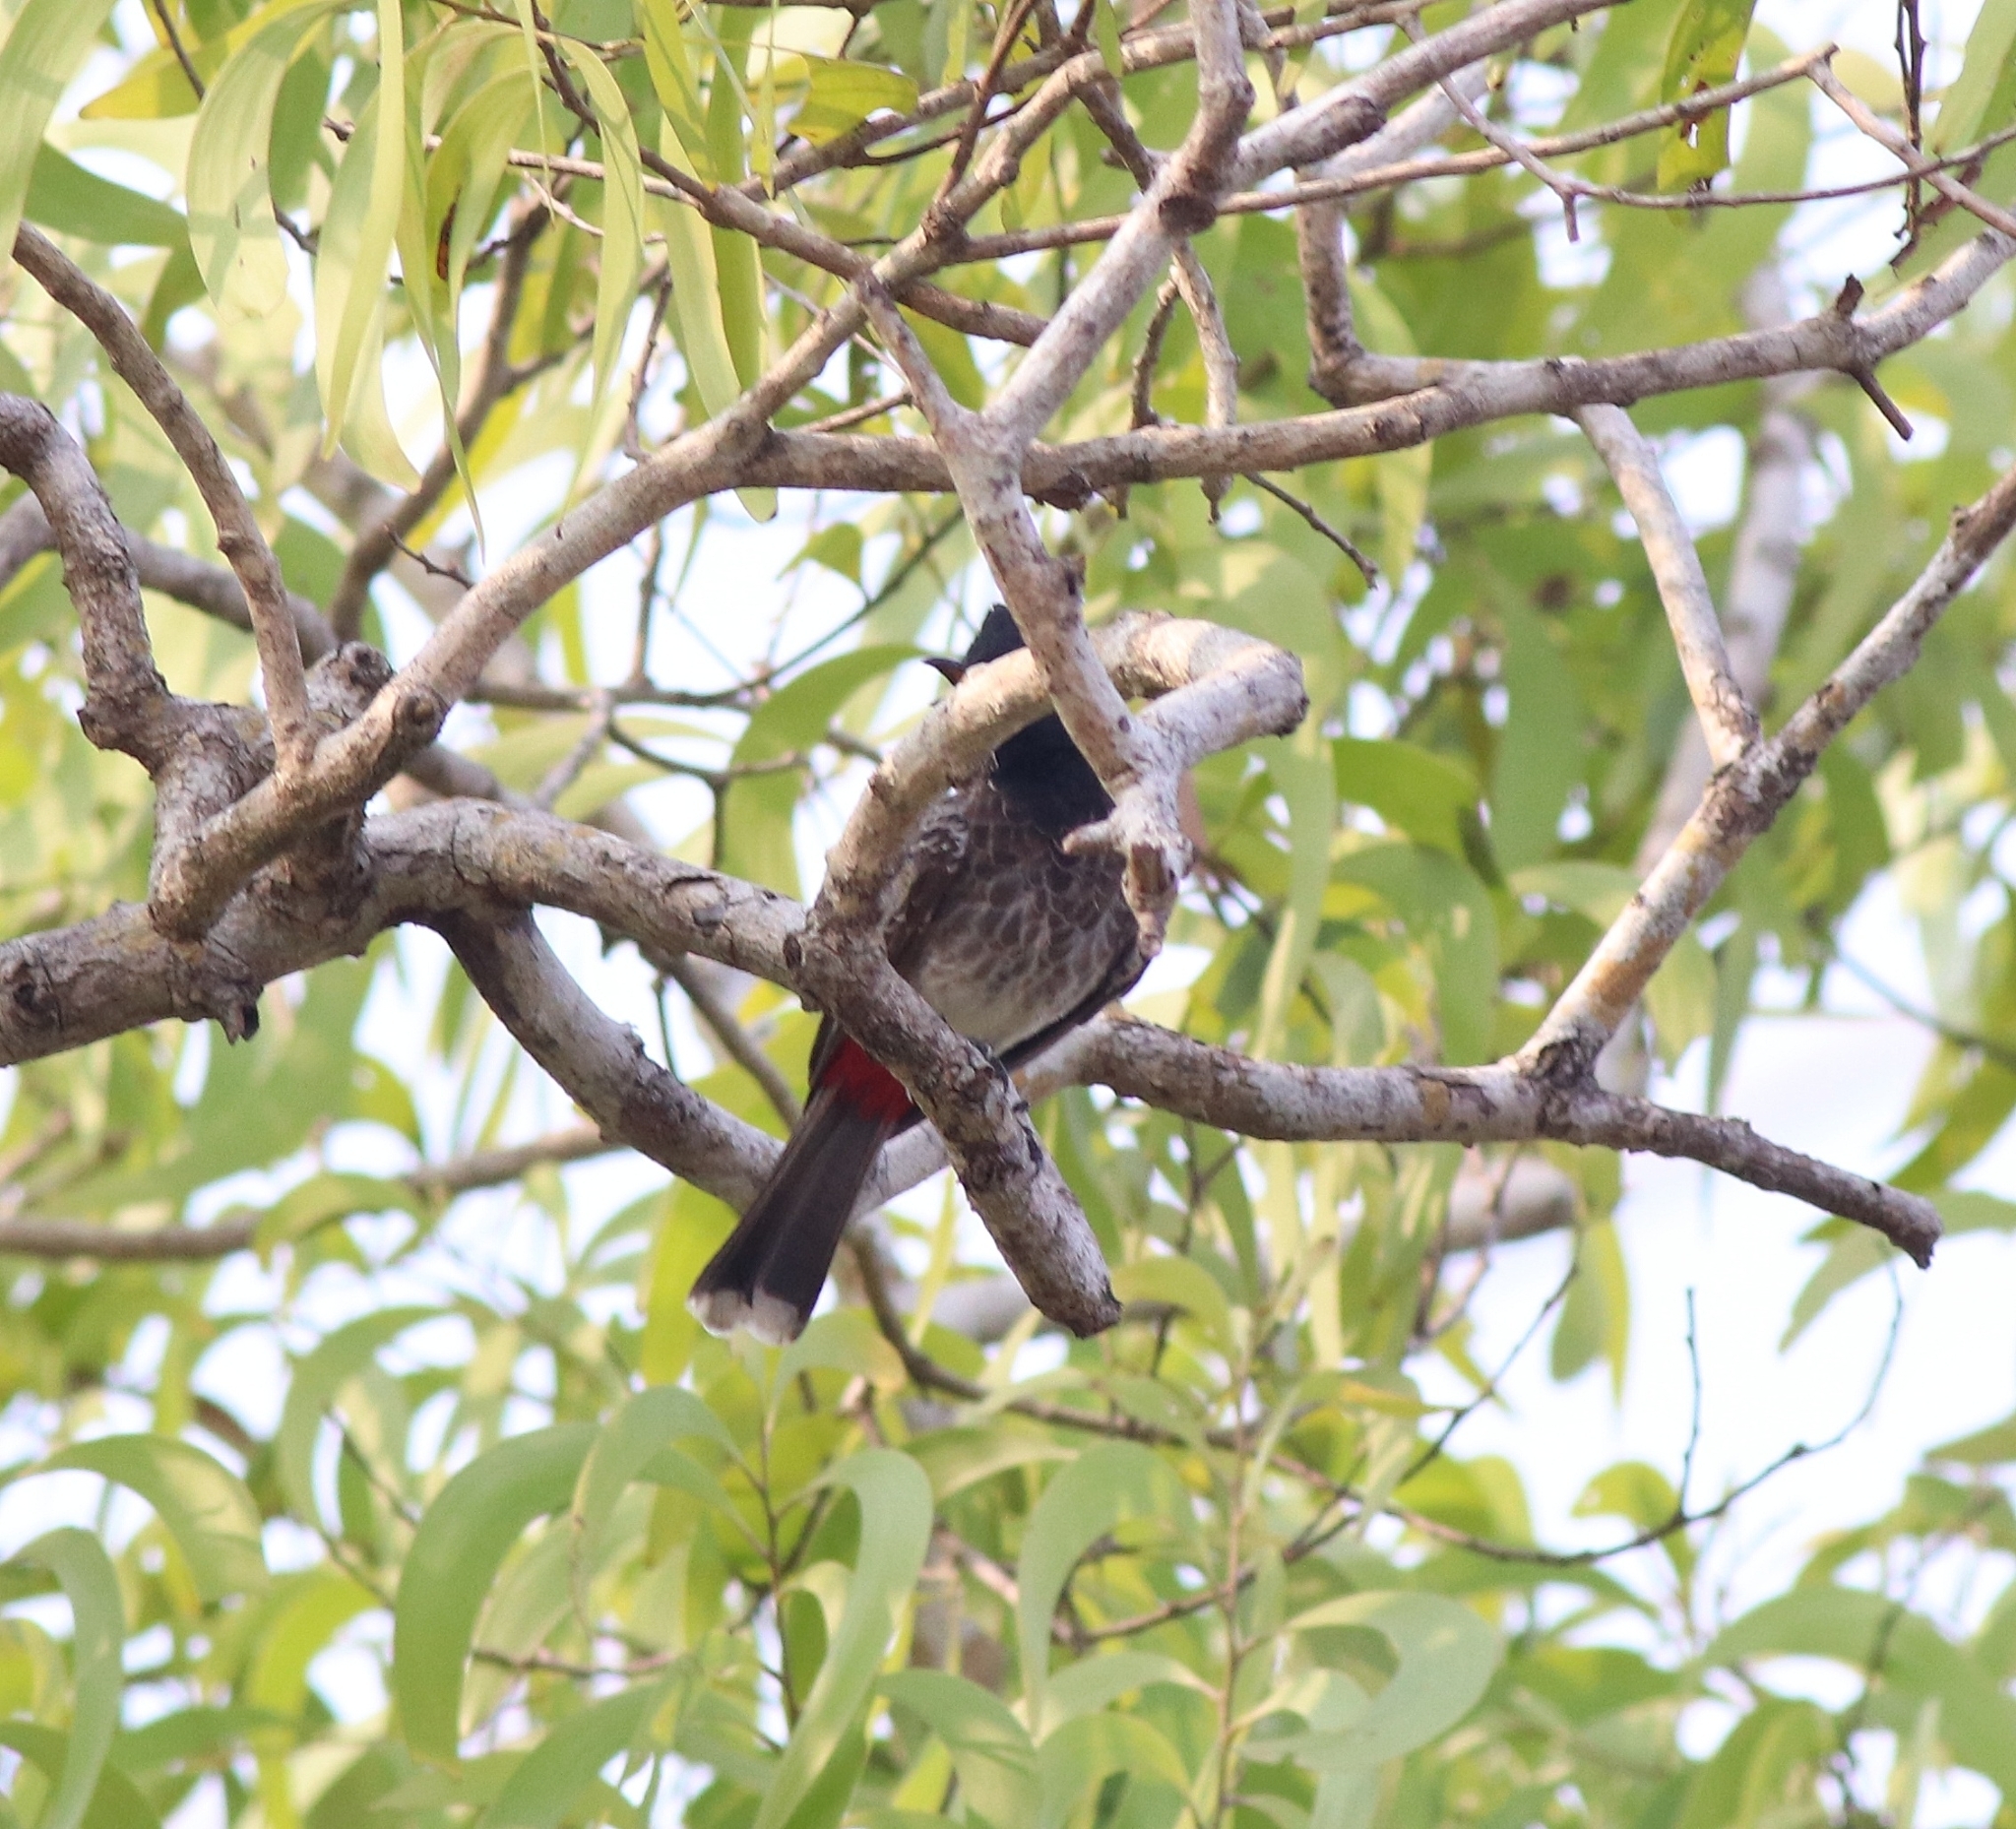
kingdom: Animalia
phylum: Chordata
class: Aves
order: Passeriformes
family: Pycnonotidae
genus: Pycnonotus
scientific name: Pycnonotus cafer
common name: Red-vented bulbul
